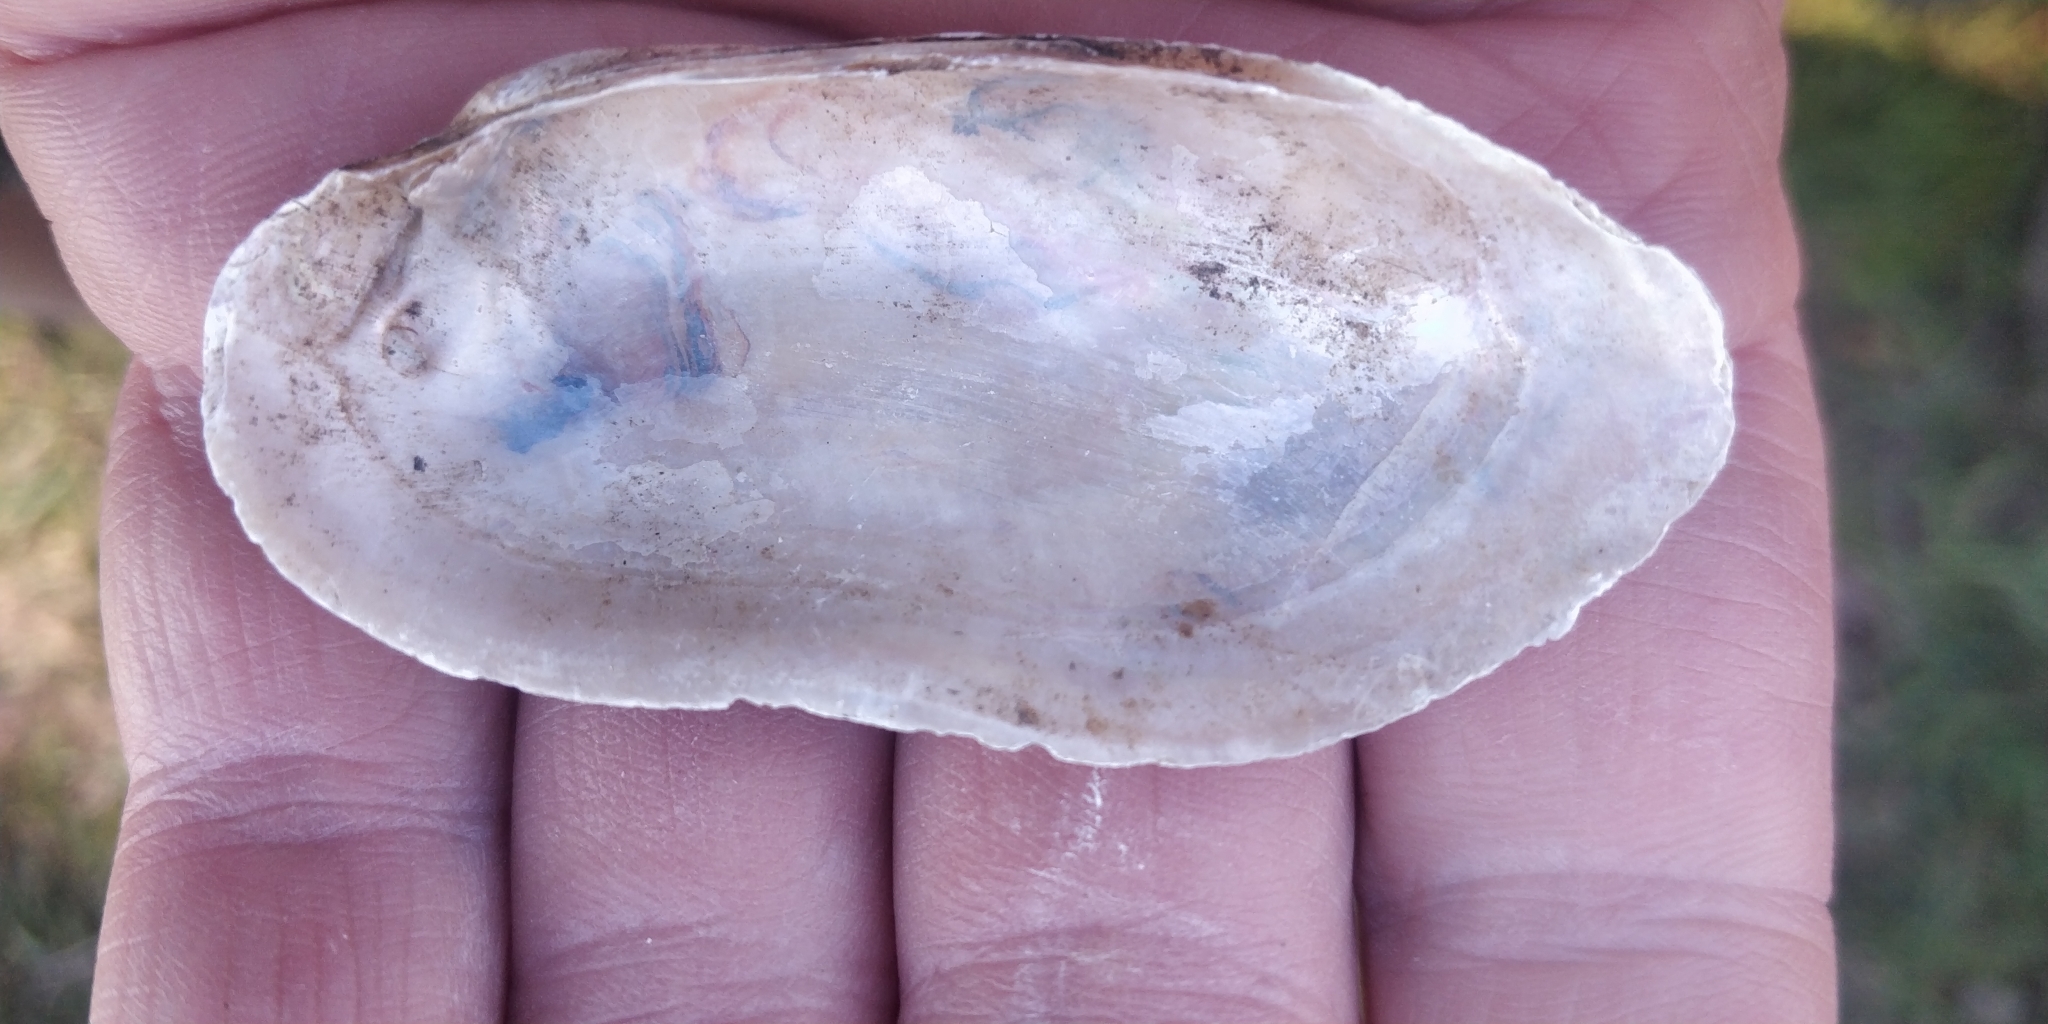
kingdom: Animalia
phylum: Mollusca
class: Bivalvia
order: Unionida
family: Unionidae
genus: Lampsilis
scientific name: Lampsilis teres
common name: Yellow sandshell
